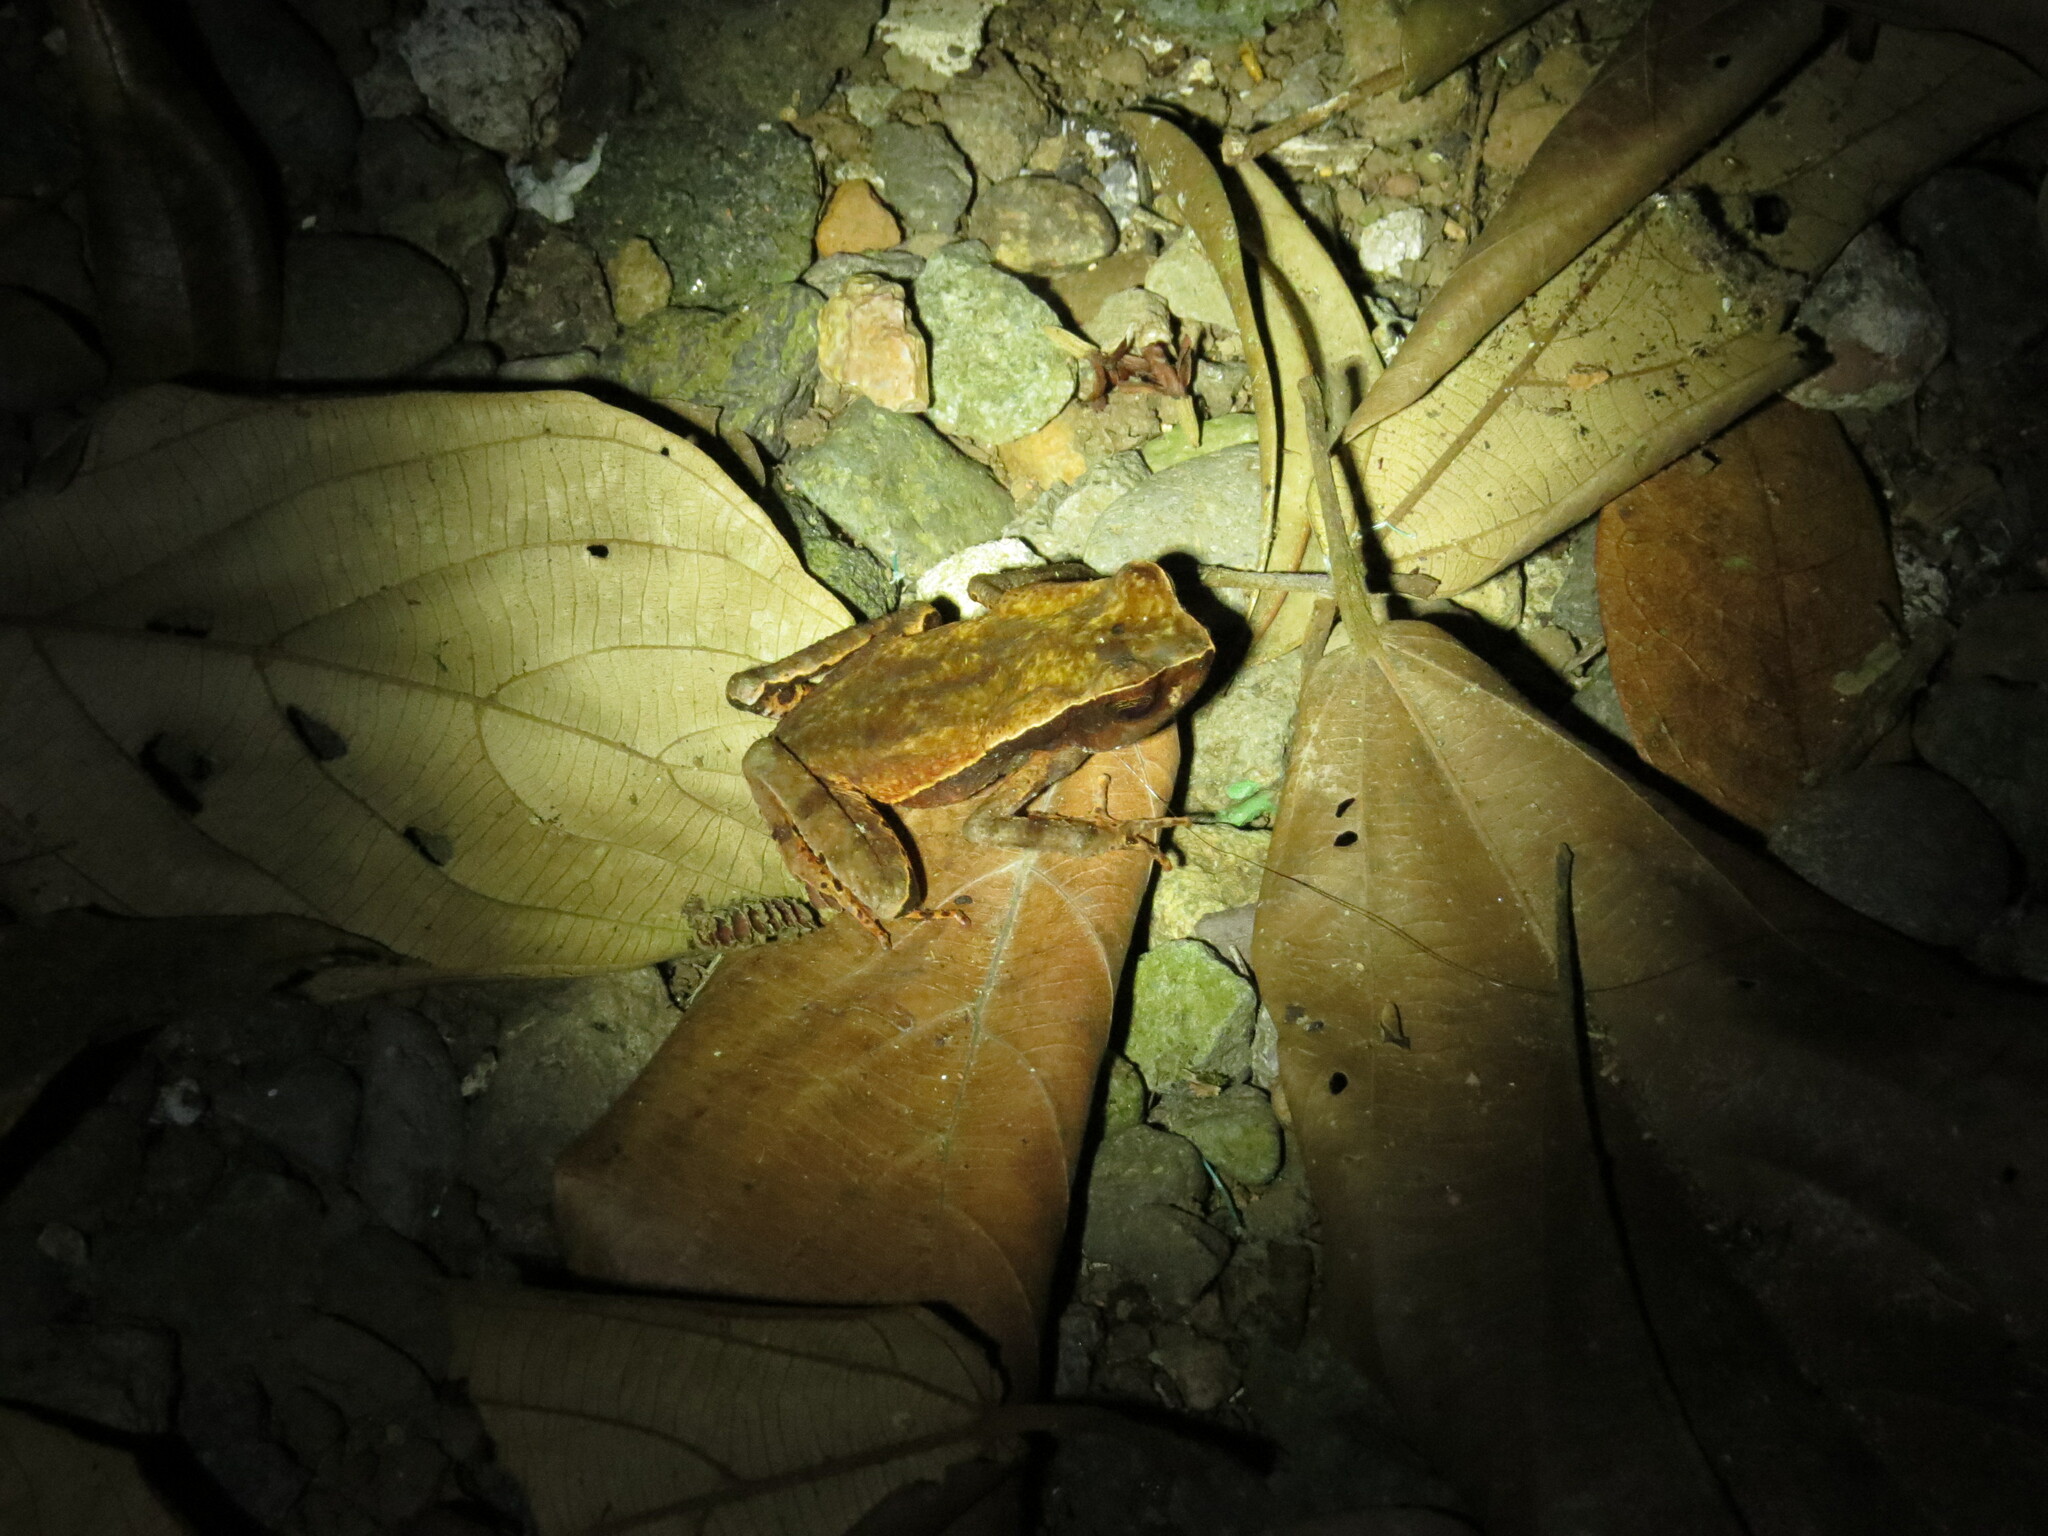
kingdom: Animalia
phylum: Chordata
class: Amphibia
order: Anura
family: Bufonidae
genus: Rhaebo
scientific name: Rhaebo haematiticus
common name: Truando toad
